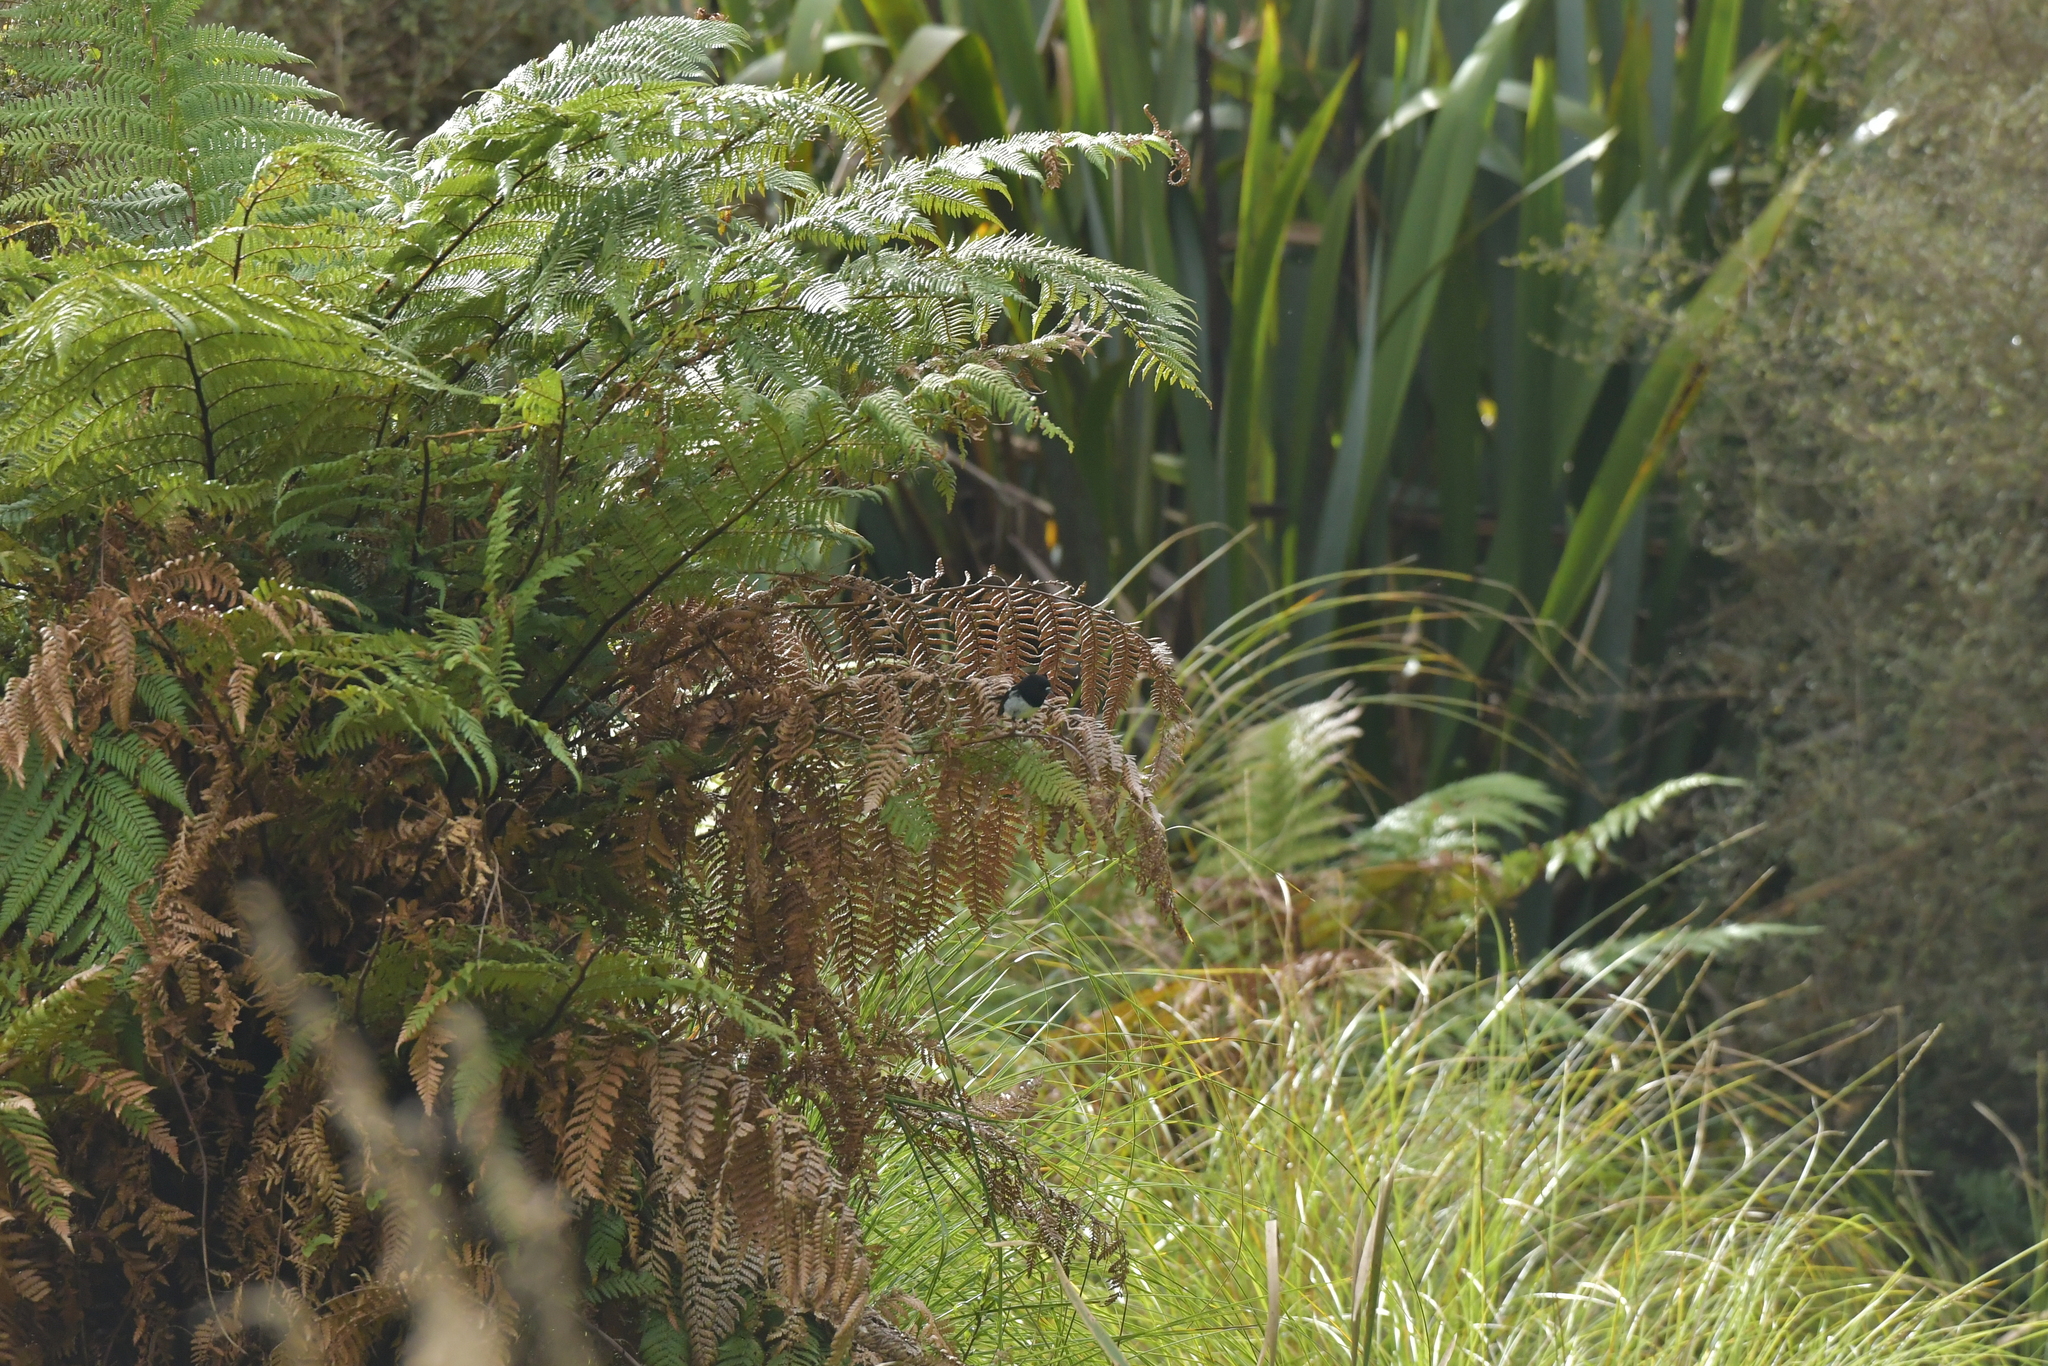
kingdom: Animalia
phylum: Chordata
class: Aves
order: Passeriformes
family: Petroicidae
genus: Petroica
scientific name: Petroica macrocephala
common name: Tomtit
